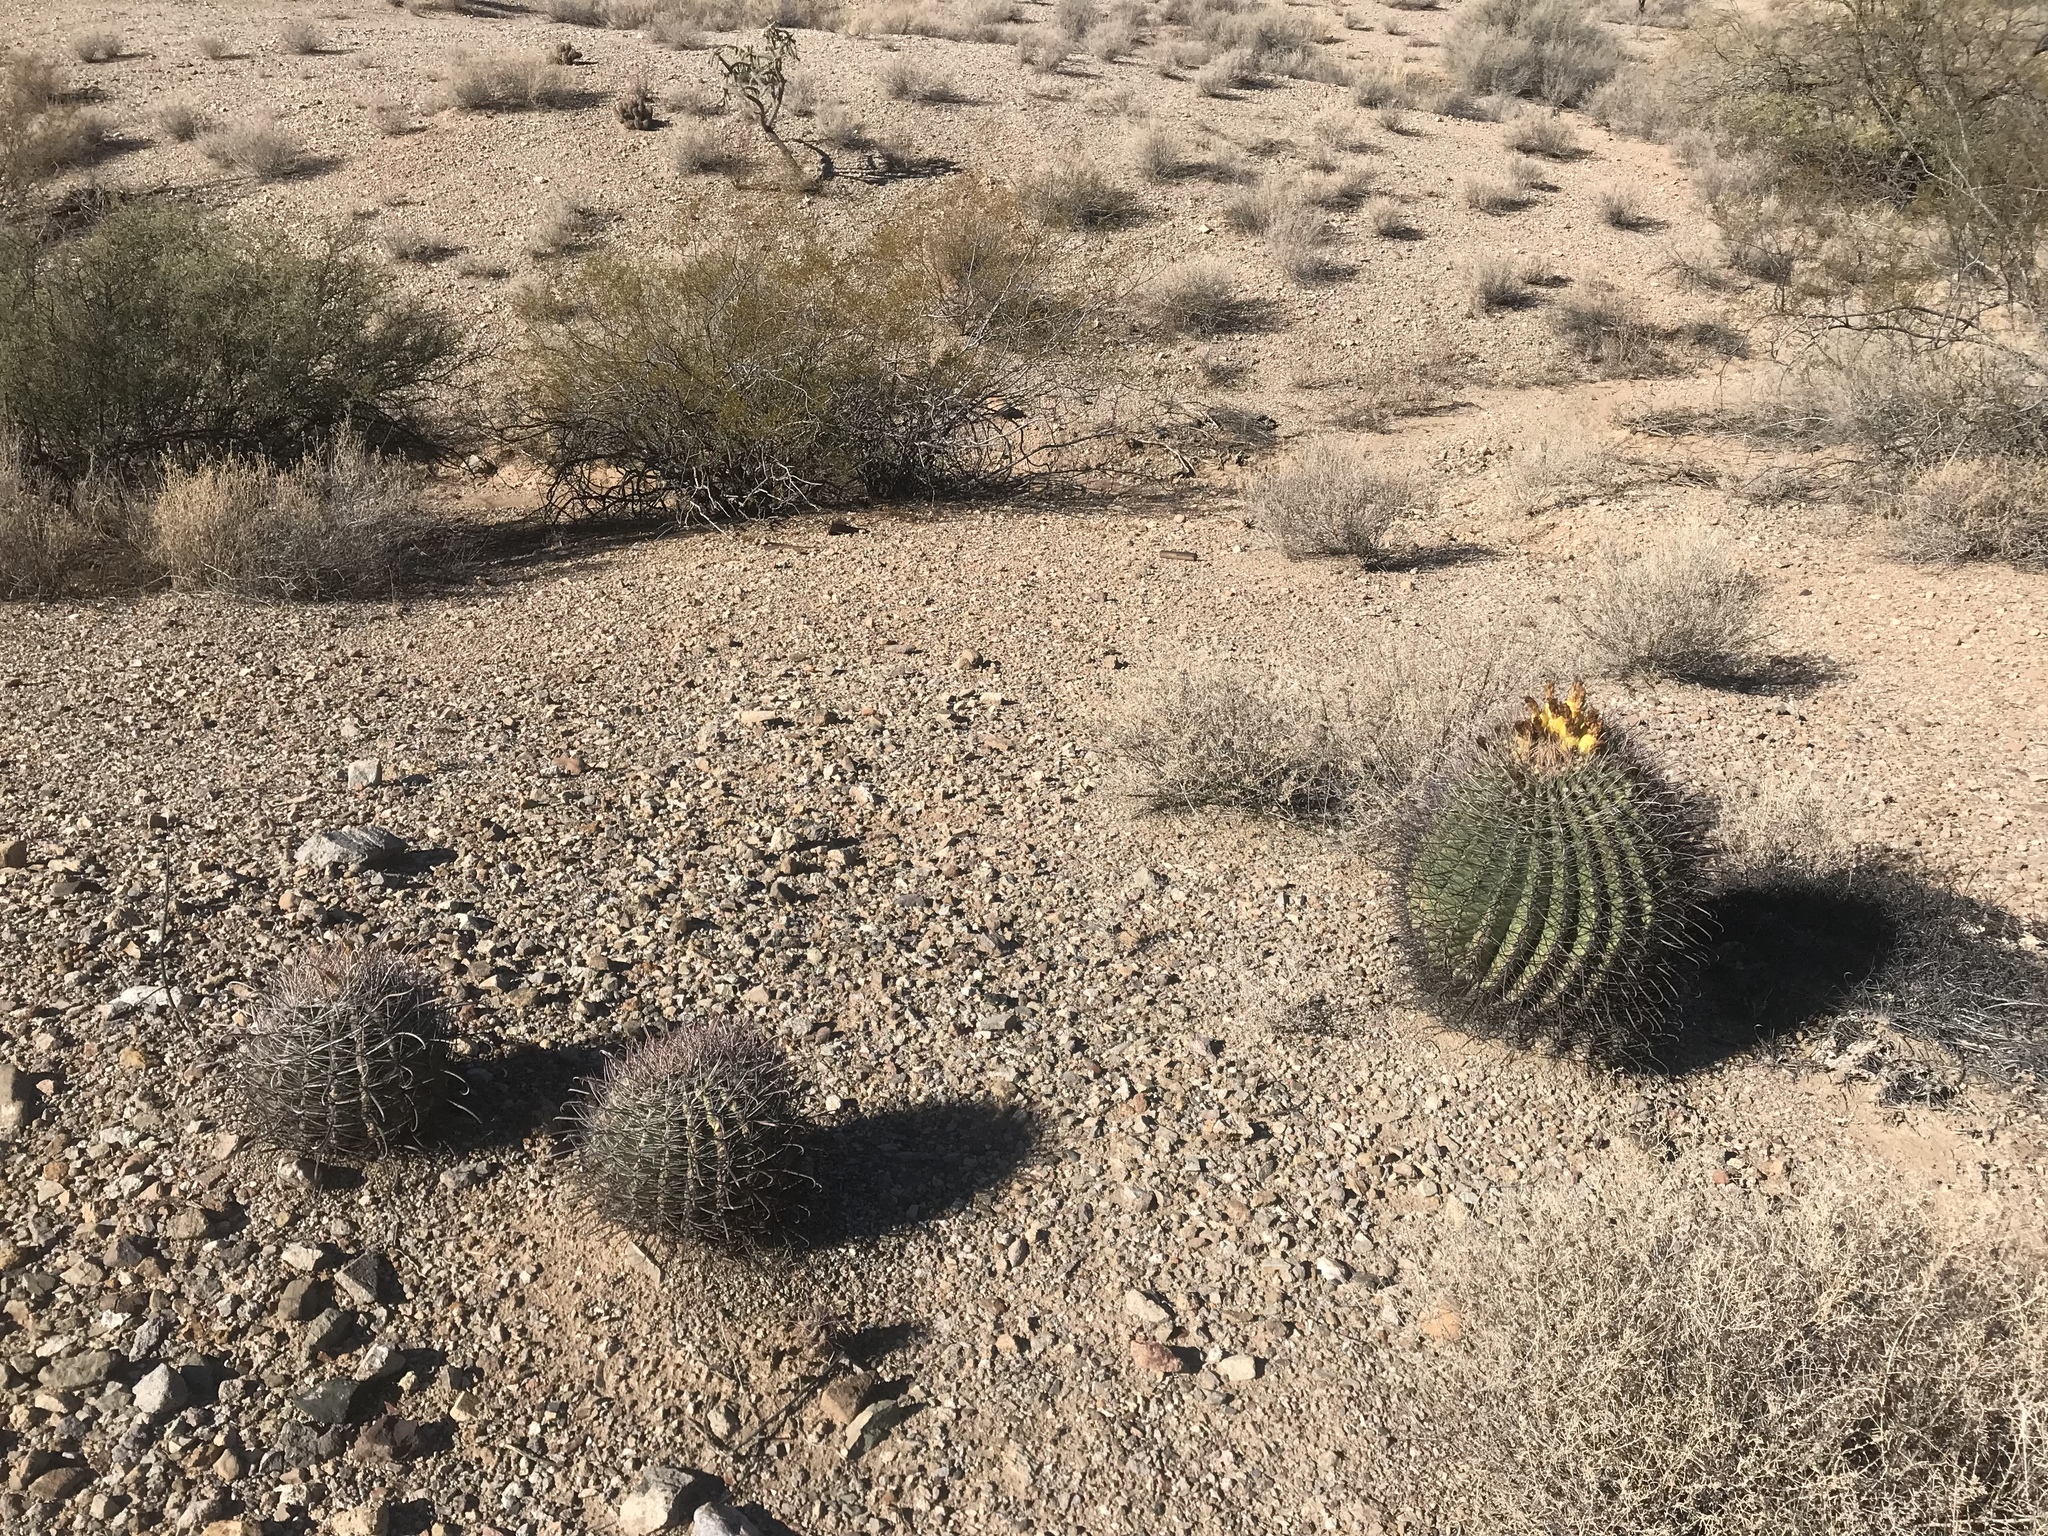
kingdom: Plantae
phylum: Tracheophyta
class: Magnoliopsida
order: Caryophyllales
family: Cactaceae
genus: Ferocactus
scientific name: Ferocactus wislizeni
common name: Candy barrel cactus
